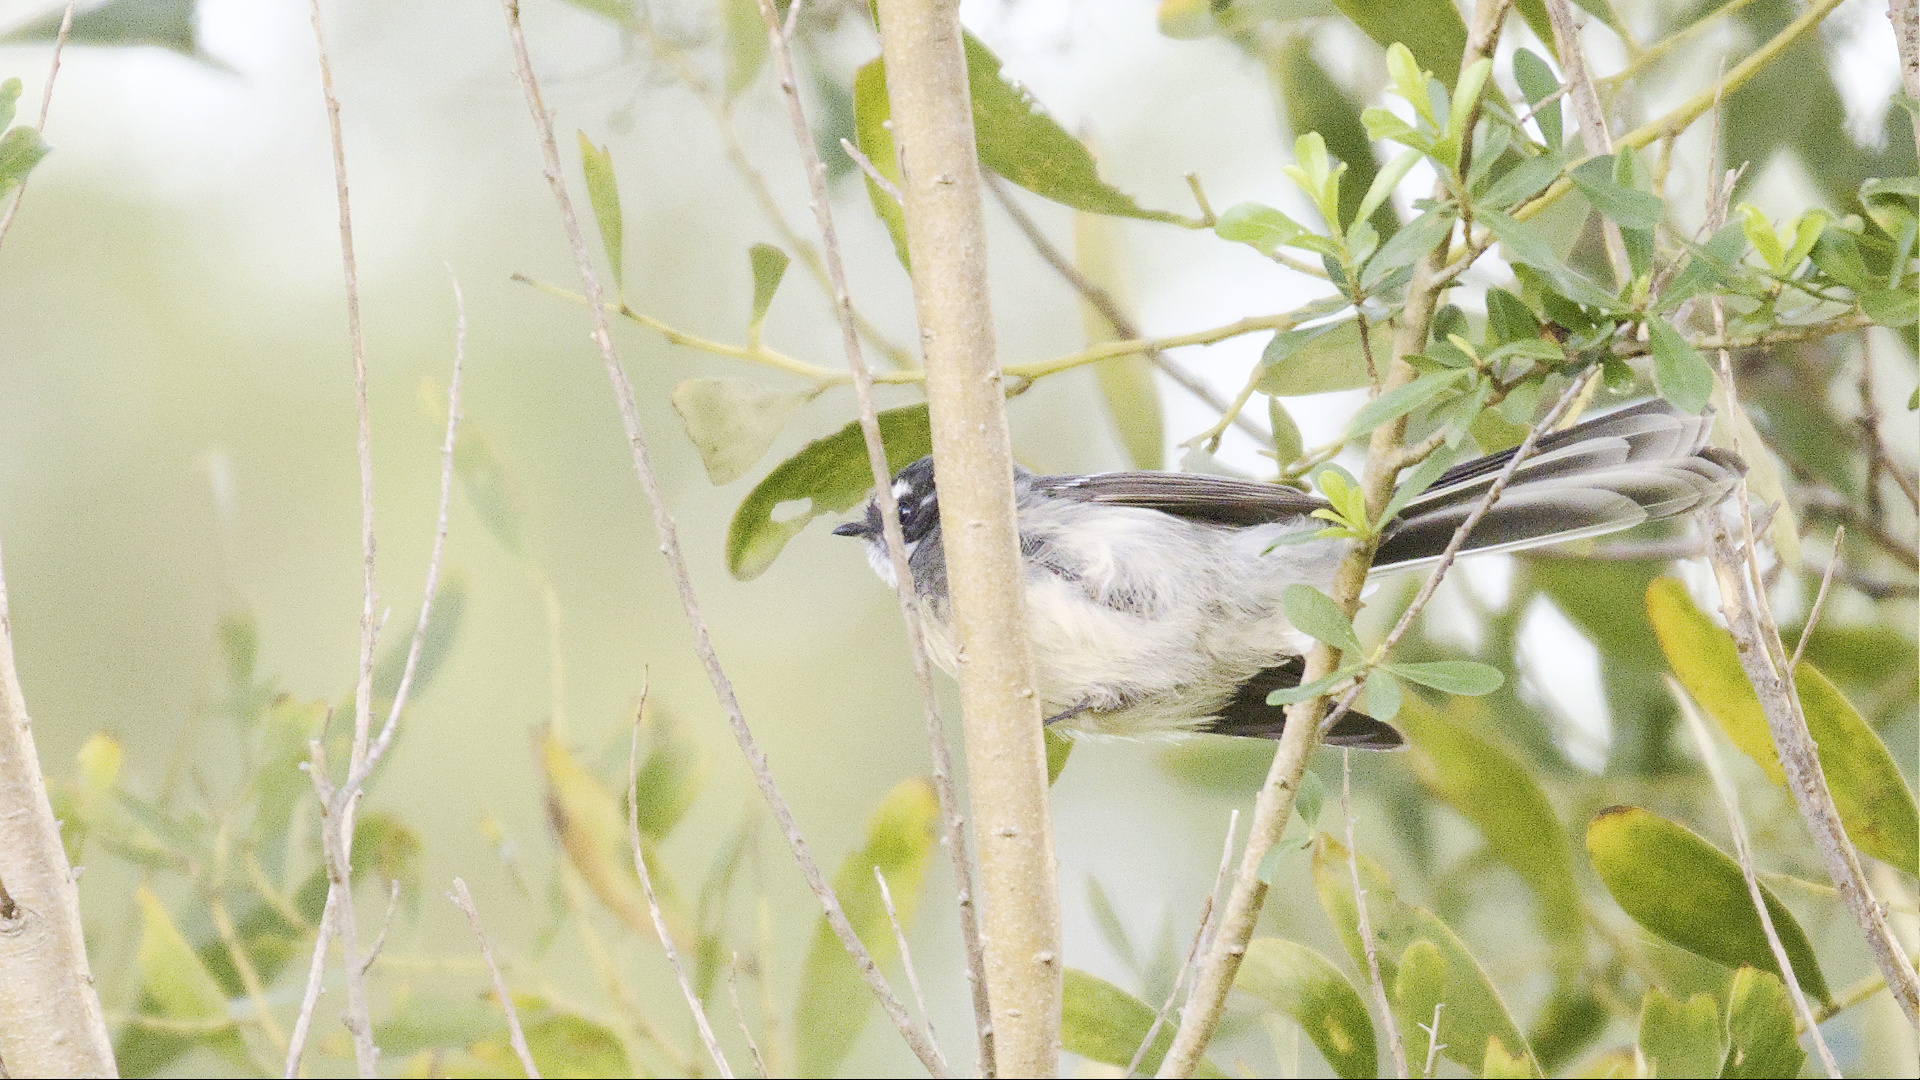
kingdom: Animalia
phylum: Chordata
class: Aves
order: Passeriformes
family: Rhipiduridae
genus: Rhipidura
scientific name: Rhipidura albiscapa
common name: Grey fantail
